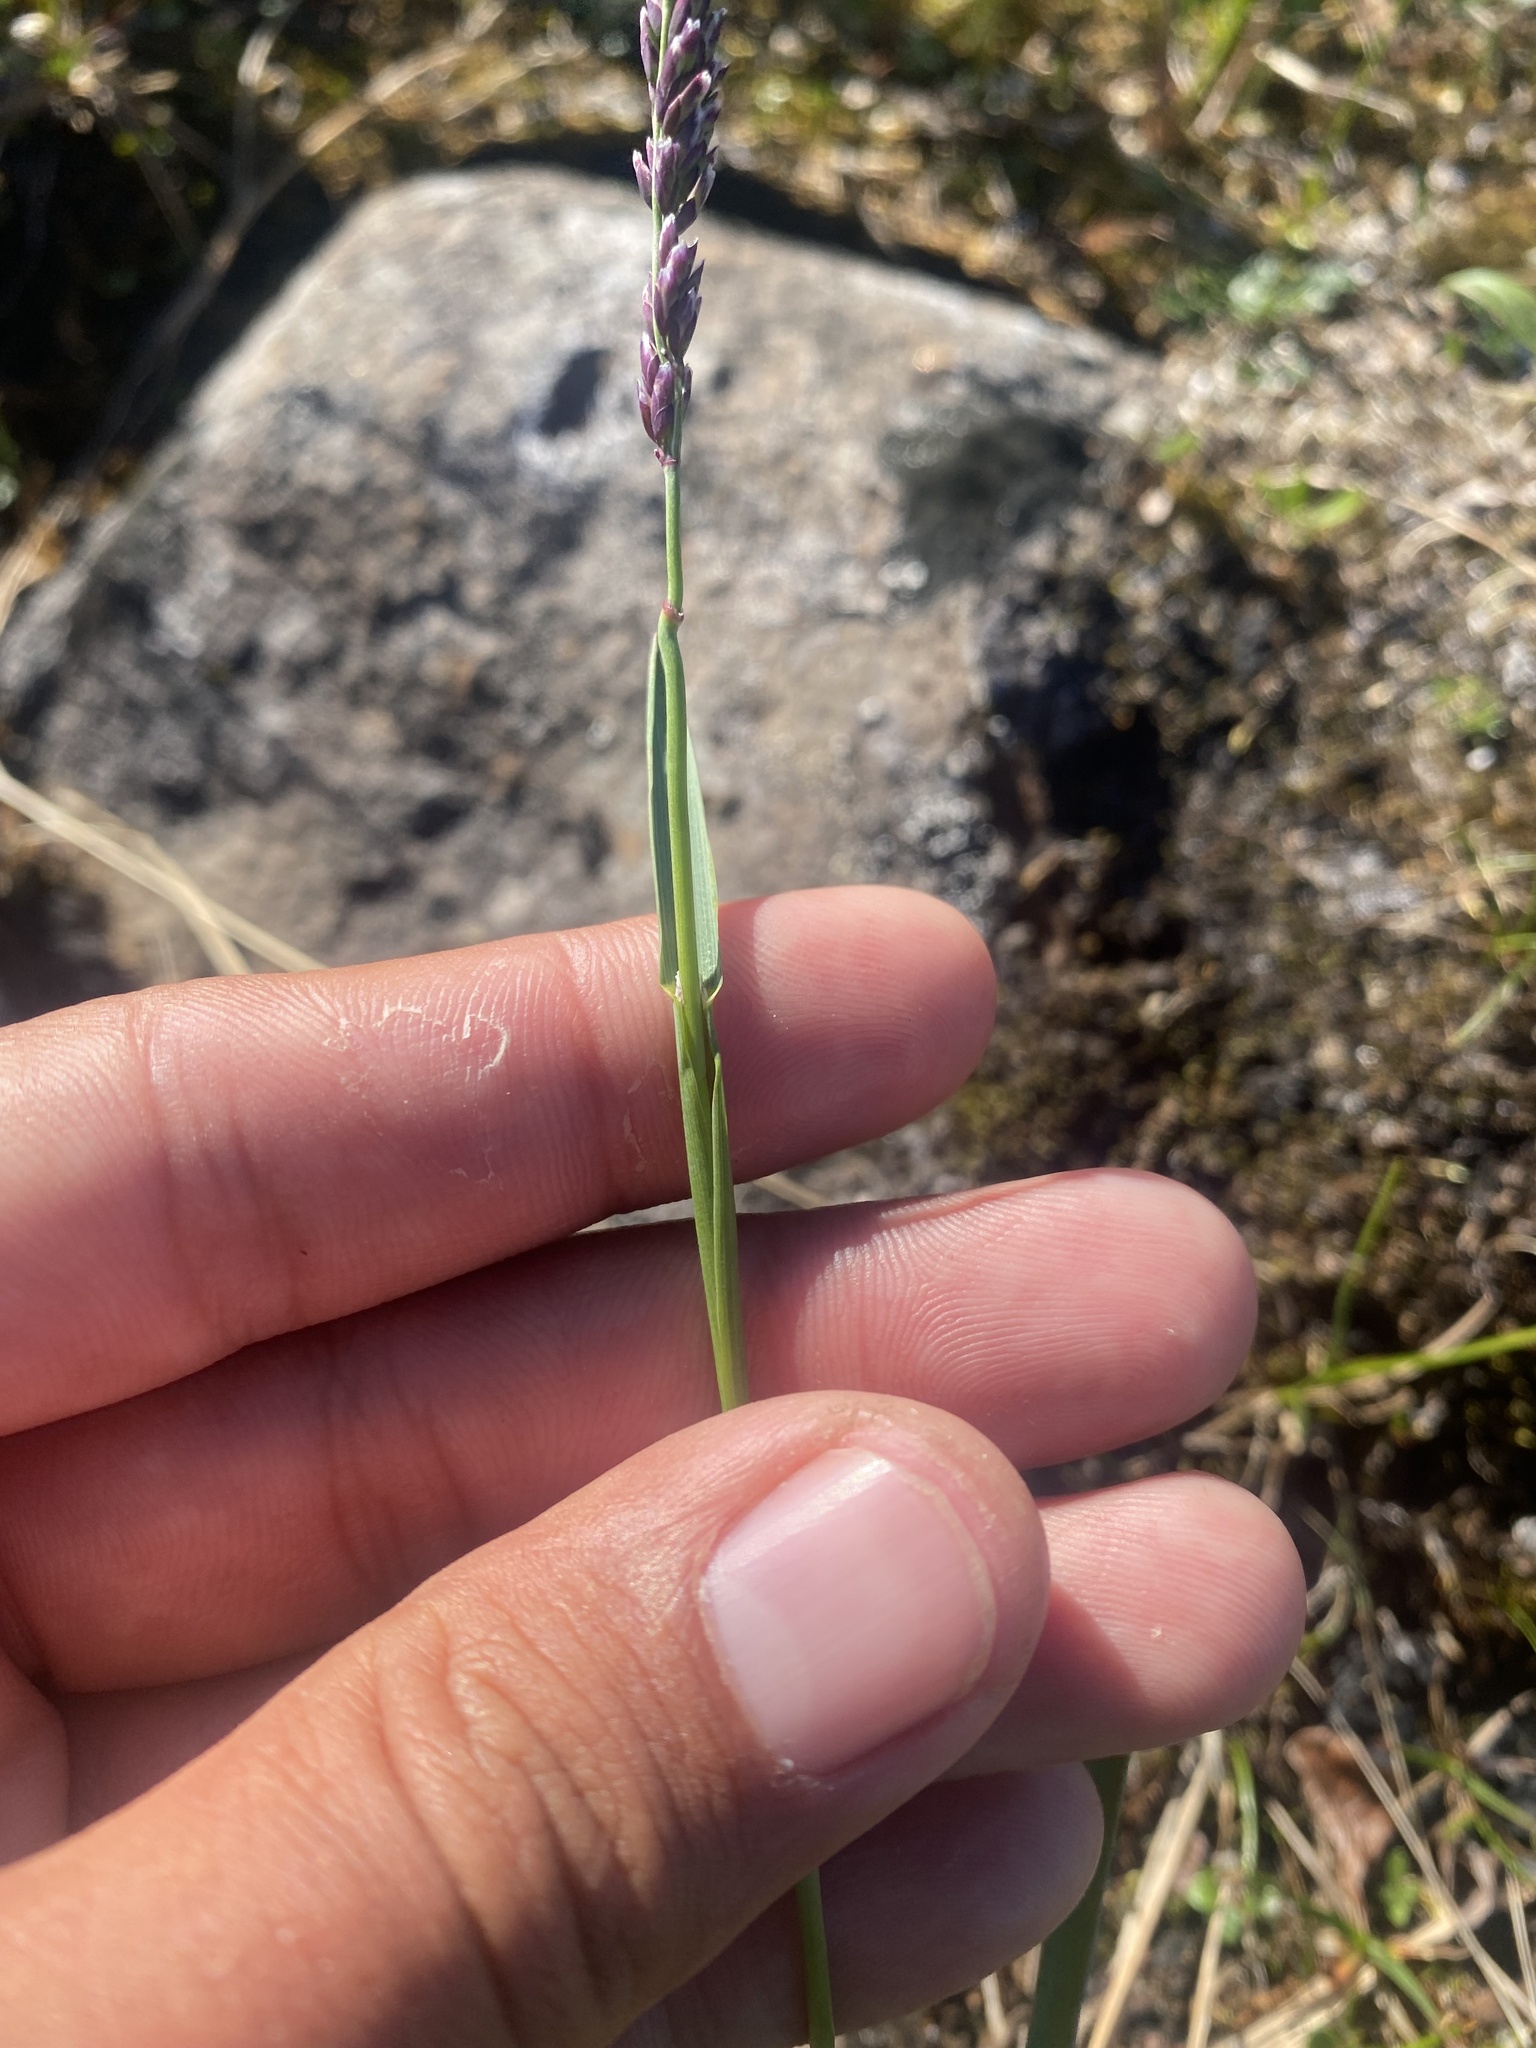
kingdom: Plantae
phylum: Tracheophyta
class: Liliopsida
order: Poales
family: Poaceae
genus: Arctagrostis
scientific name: Arctagrostis latifolia
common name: Arctic grass
